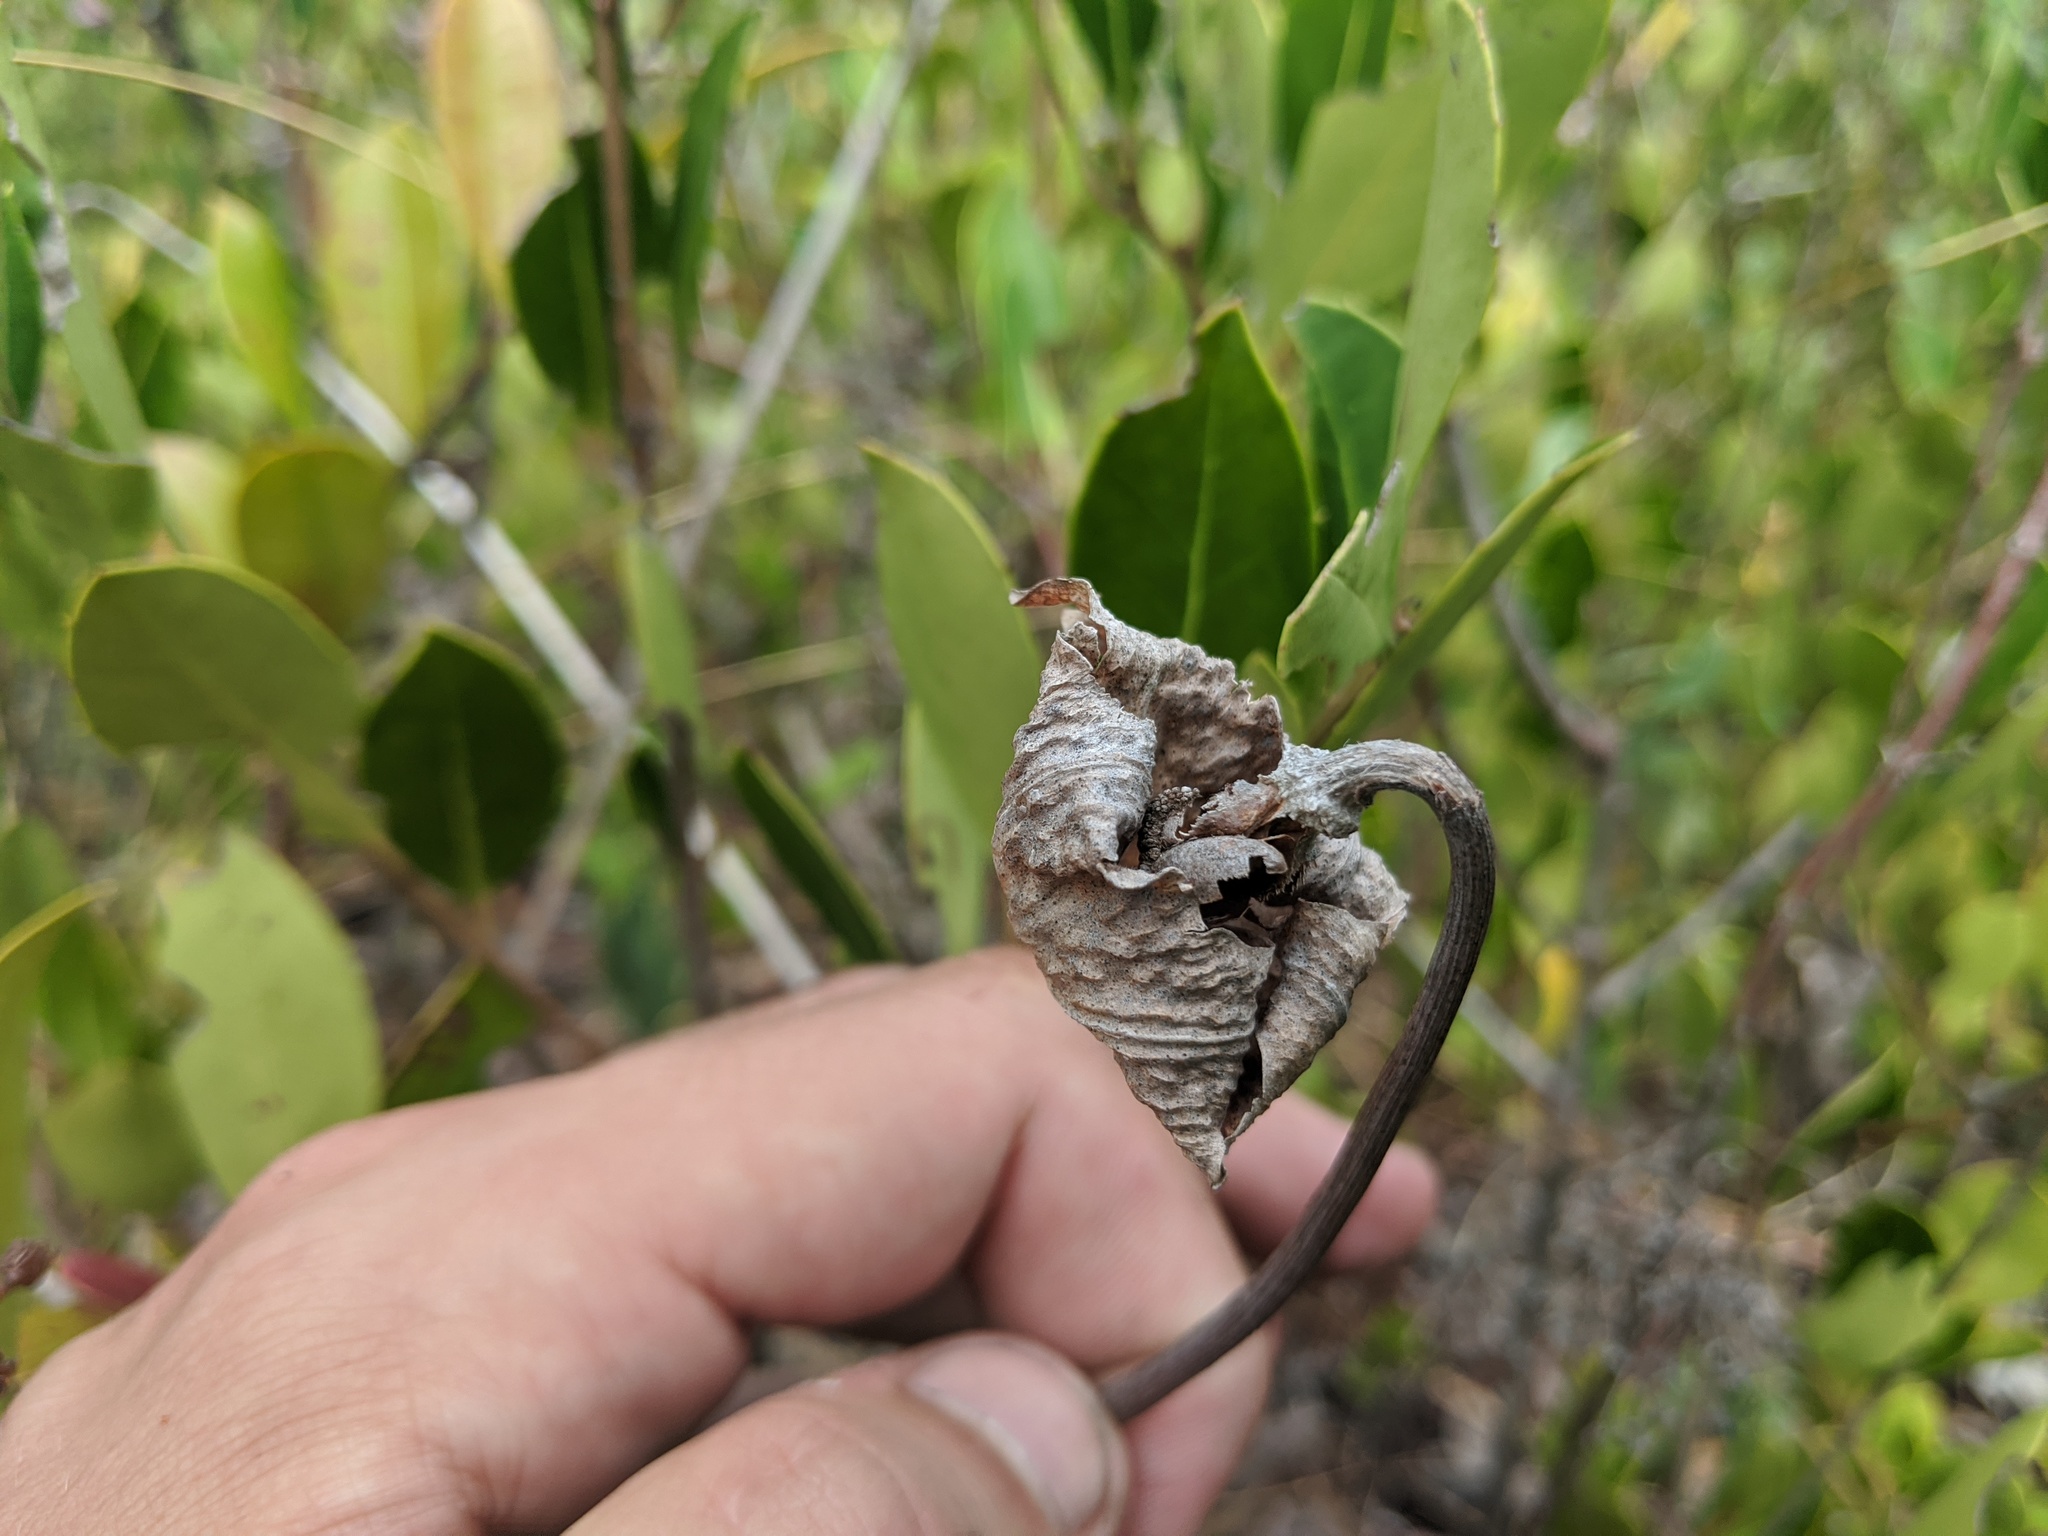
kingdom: Plantae
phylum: Tracheophyta
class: Magnoliopsida
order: Ericales
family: Sarraceniaceae
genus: Sarracenia
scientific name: Sarracenia purpurea
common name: Pitcherplant
